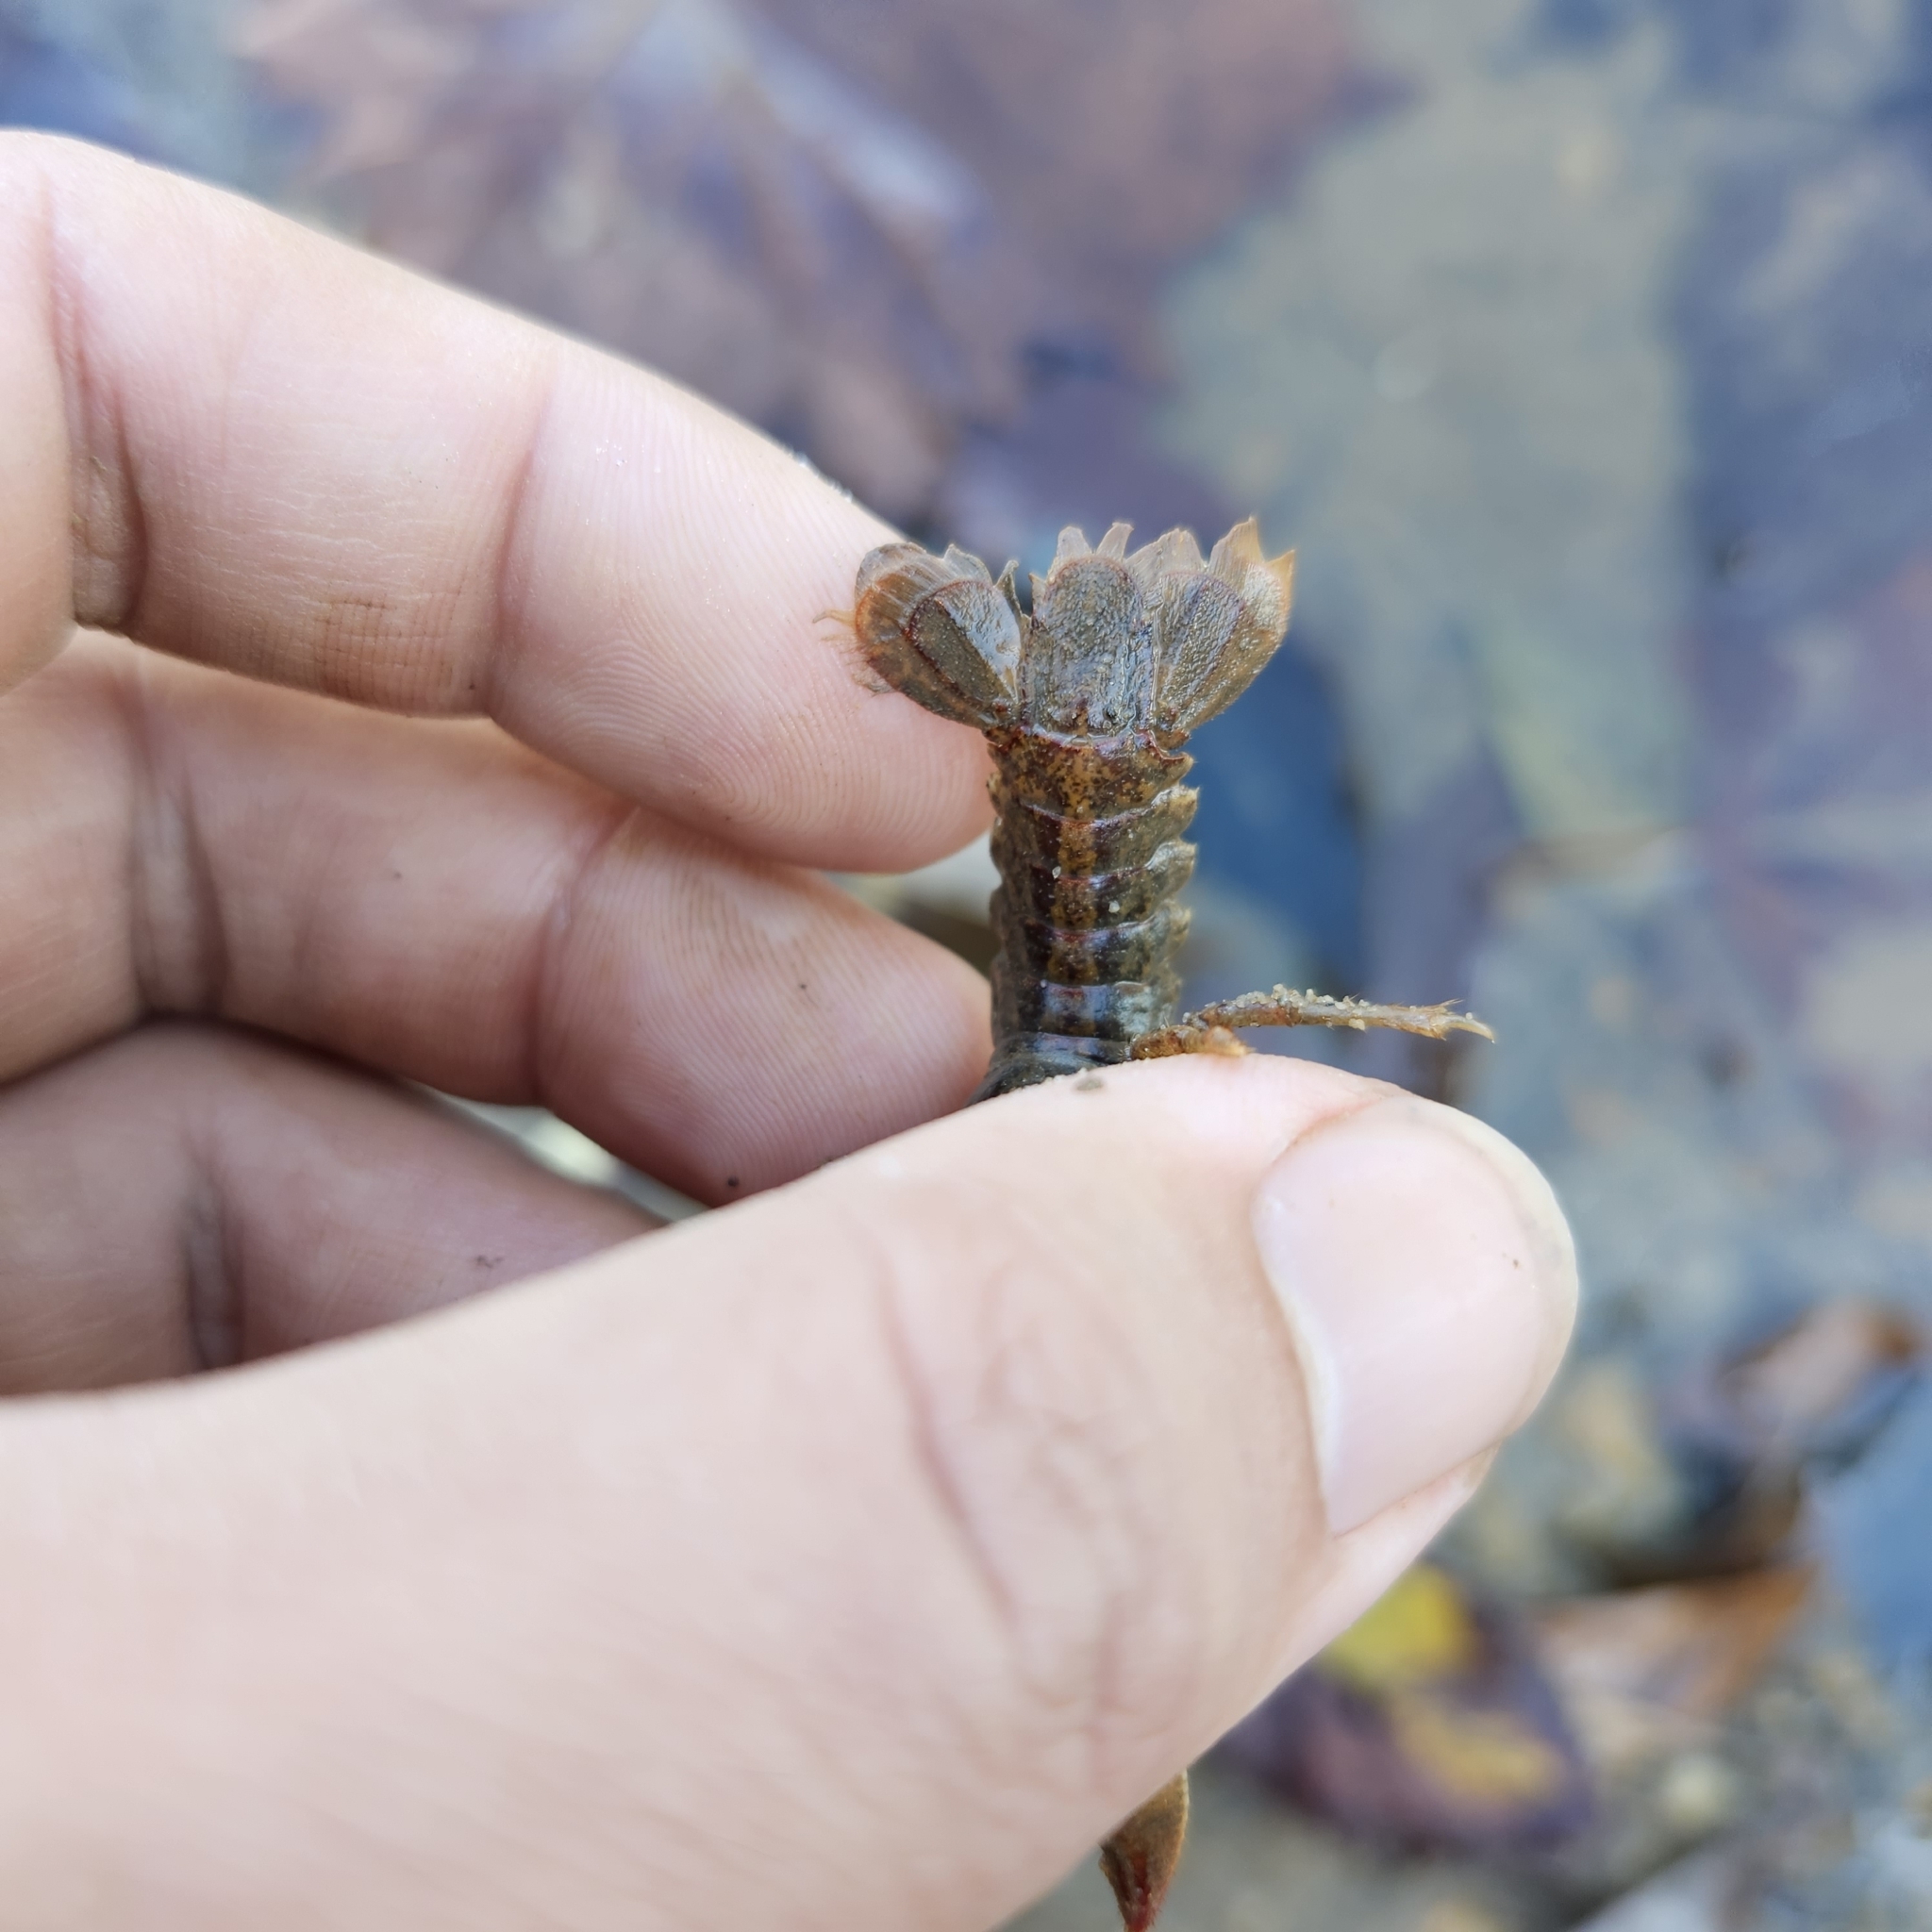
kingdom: Animalia
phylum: Arthropoda
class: Malacostraca
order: Decapoda
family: Cambaridae
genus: Lacunicambarus
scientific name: Lacunicambarus dalyae
